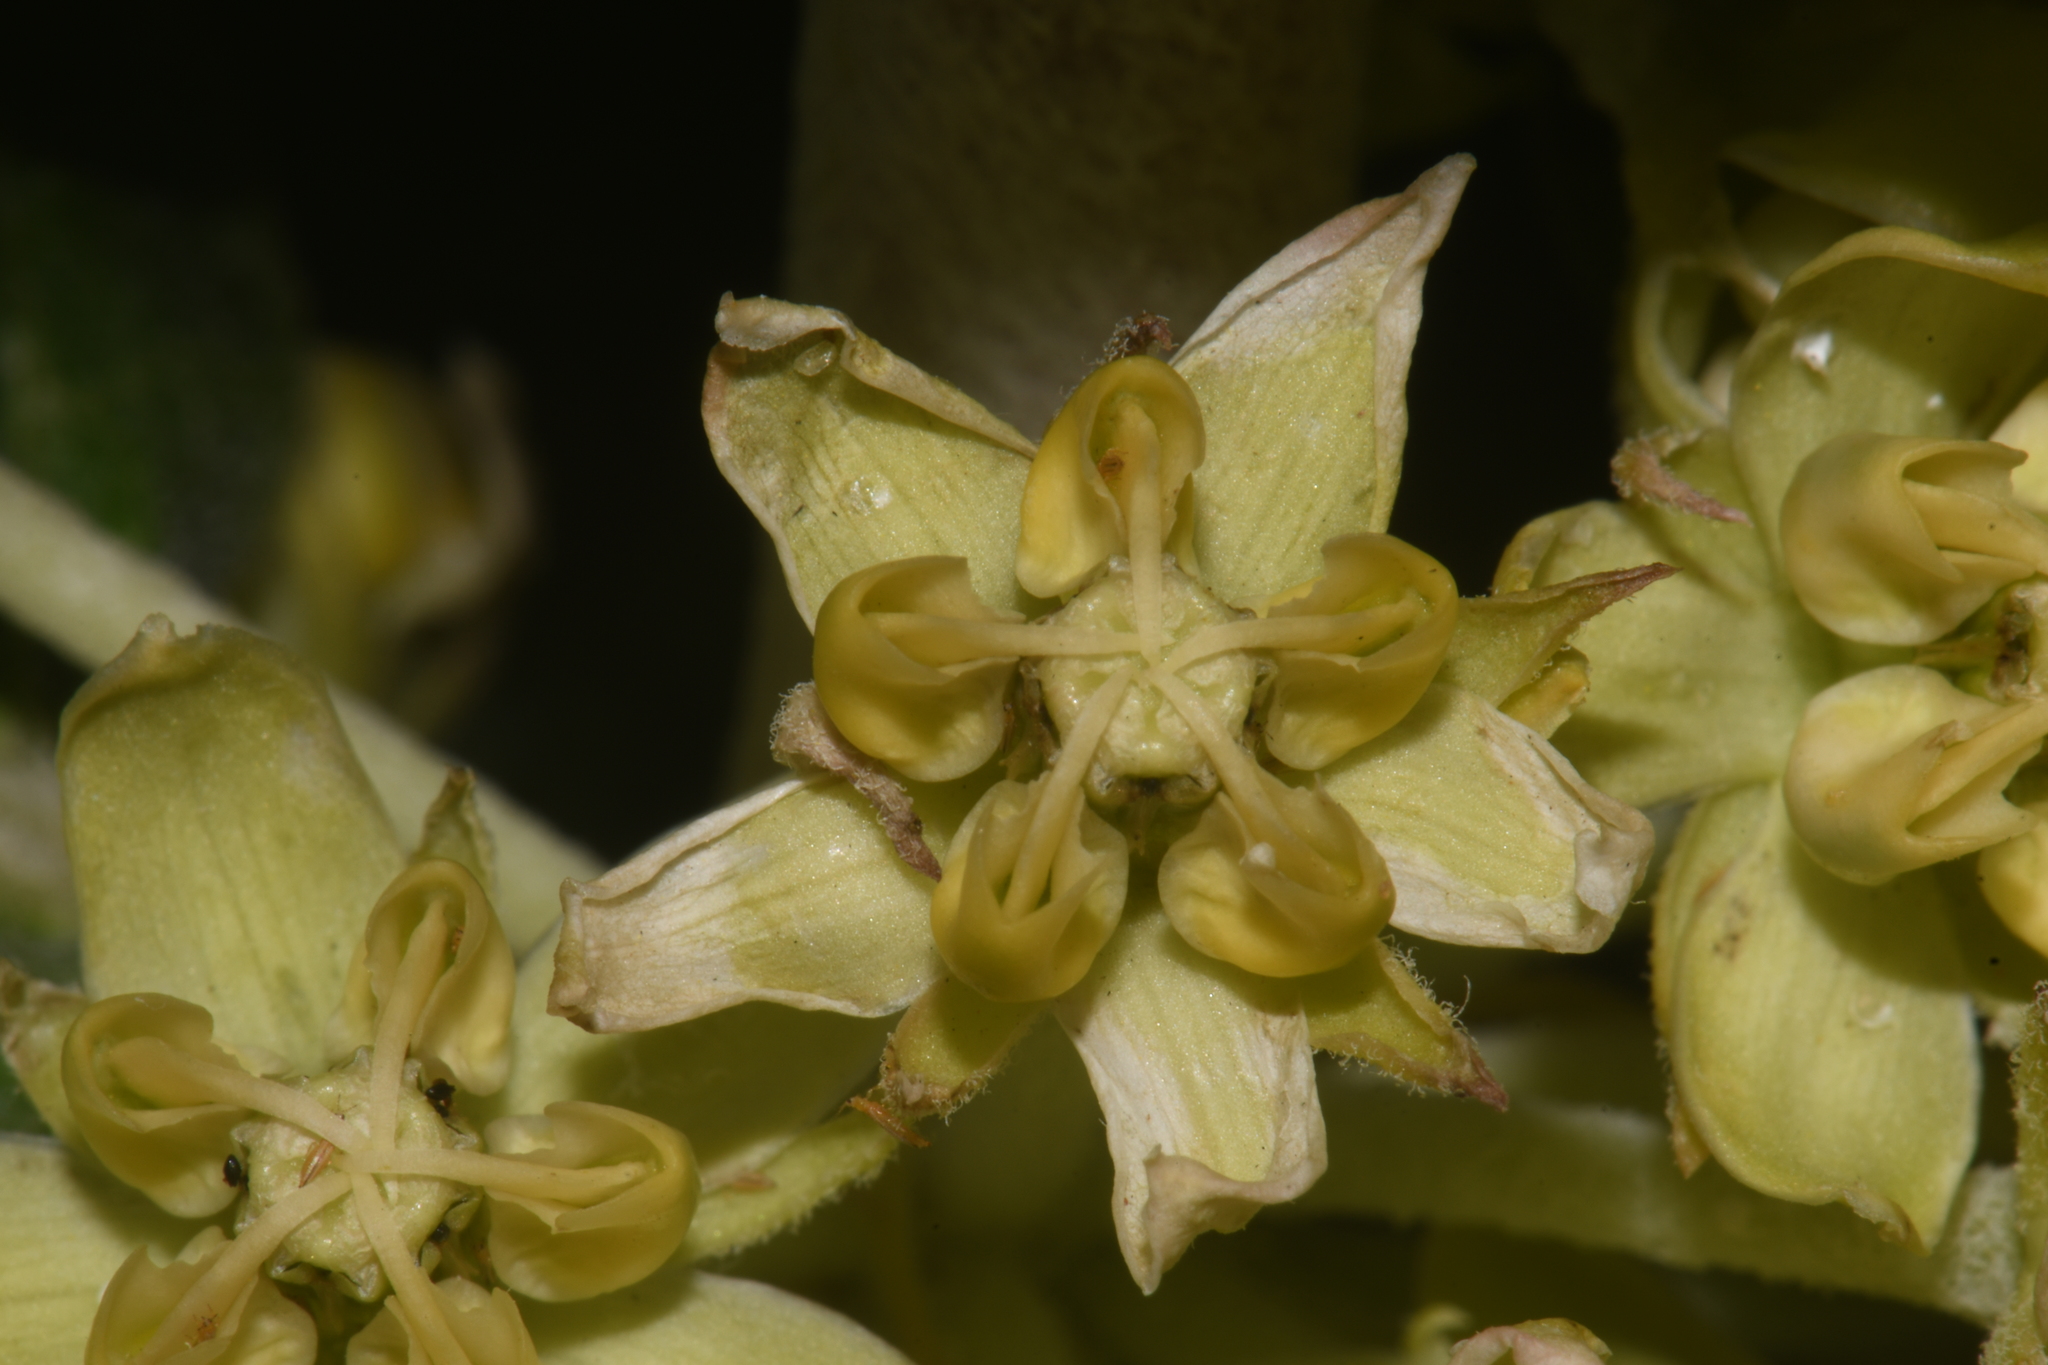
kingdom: Plantae
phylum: Tracheophyta
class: Magnoliopsida
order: Gentianales
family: Apocynaceae
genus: Asclepias
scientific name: Asclepias arenaria
